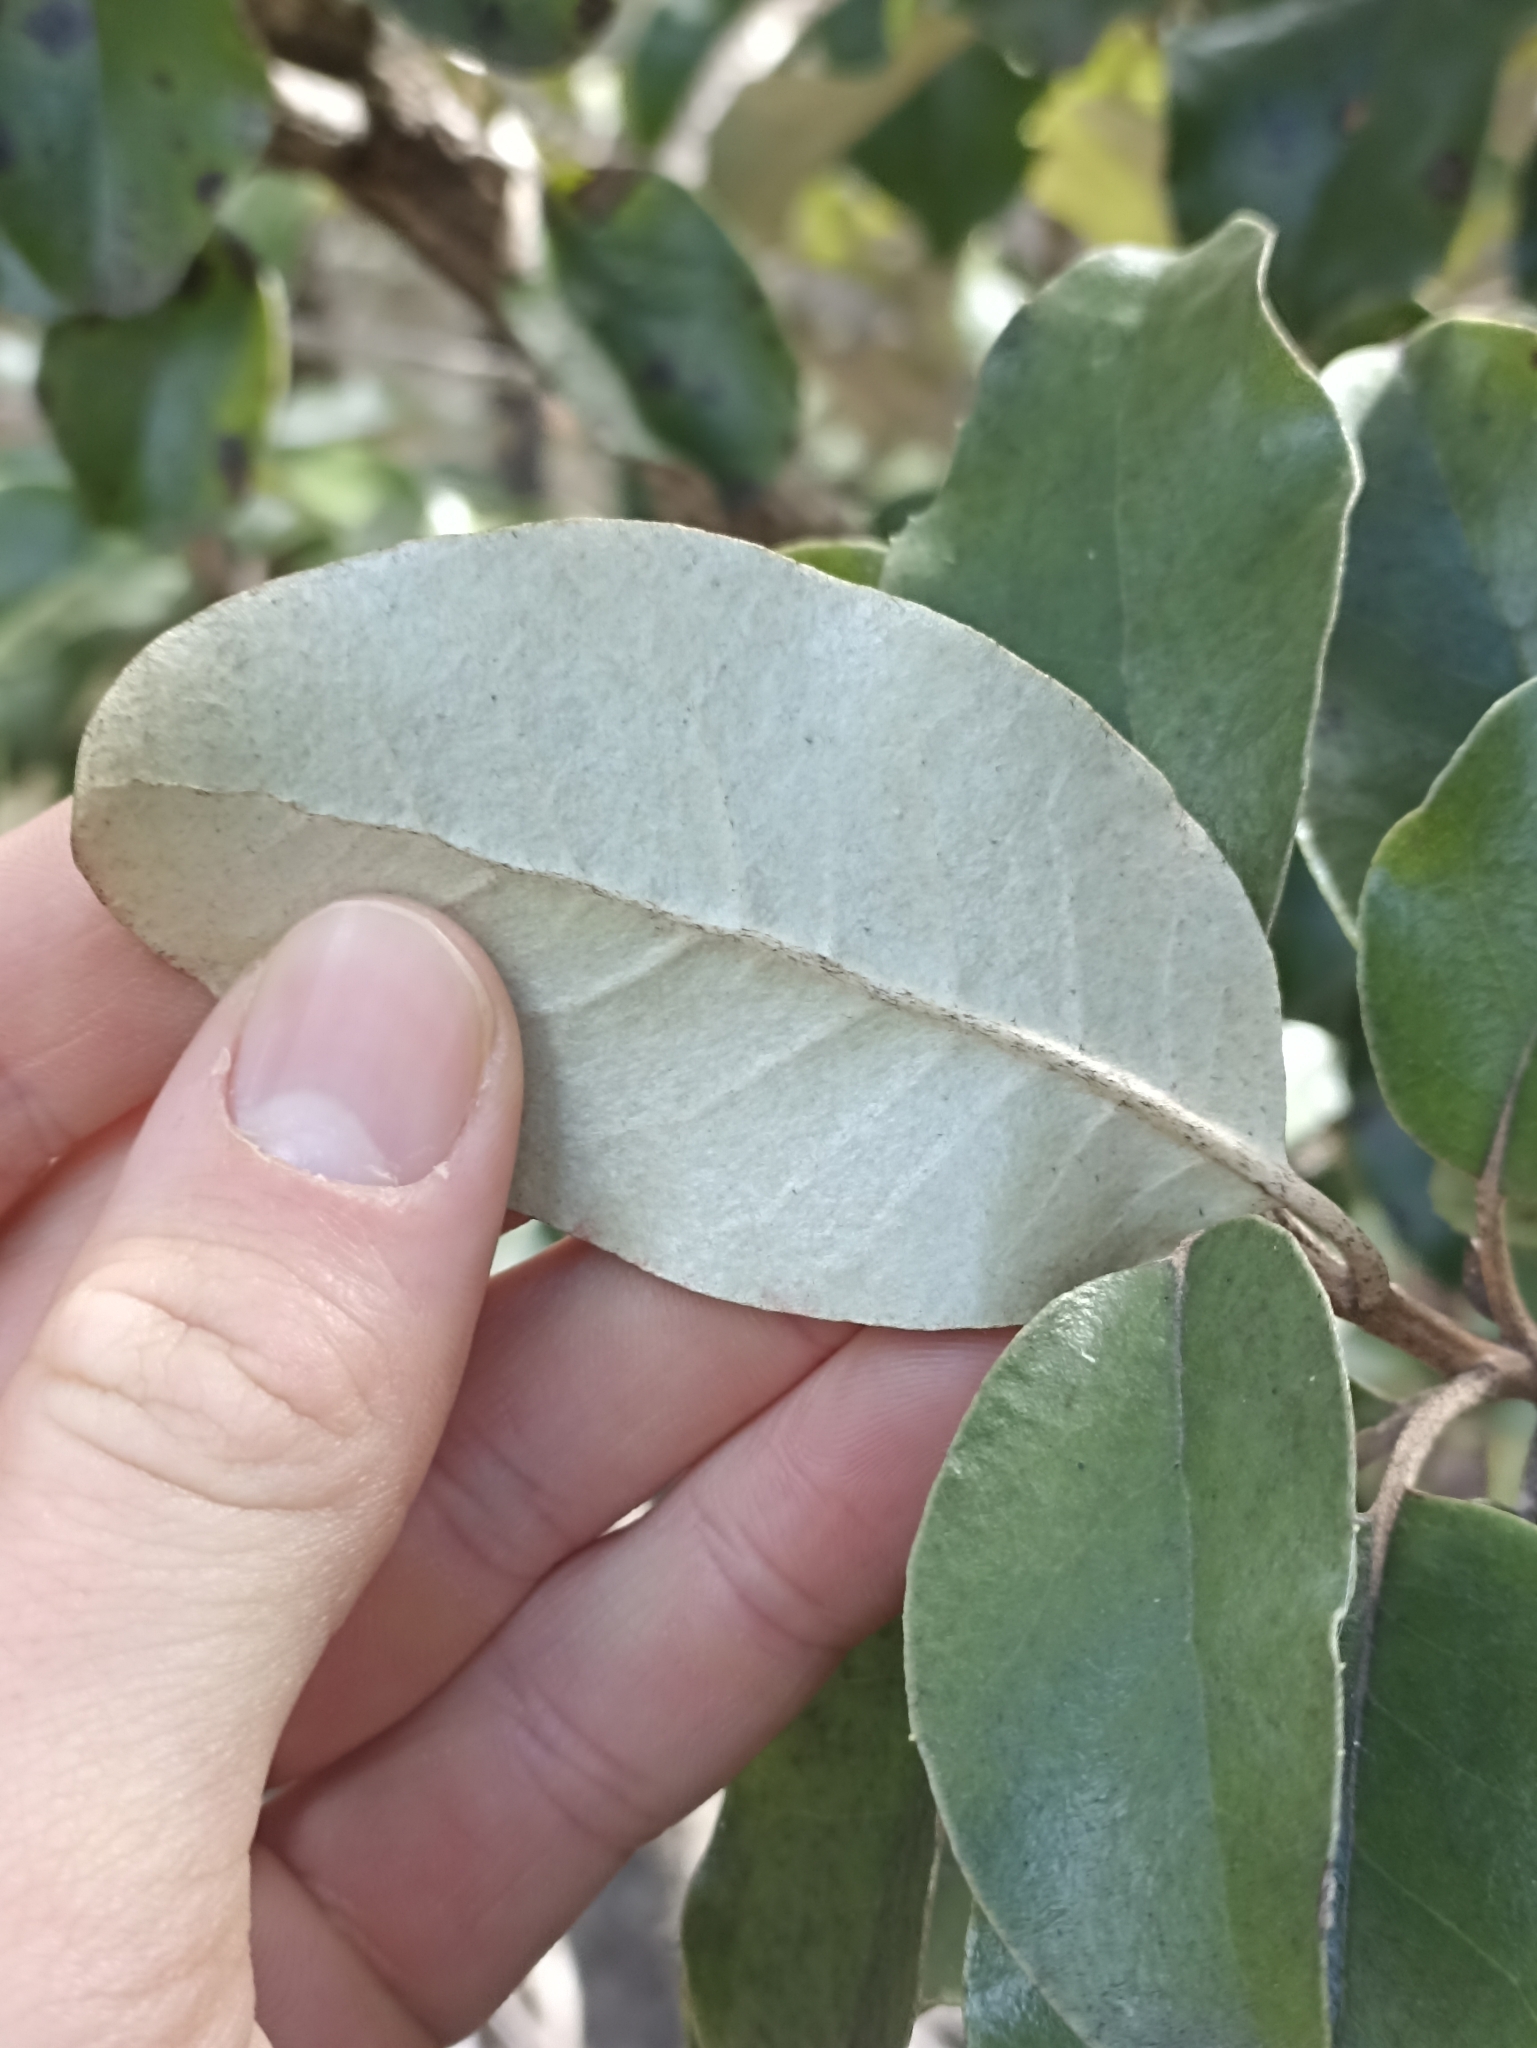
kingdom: Plantae
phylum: Tracheophyta
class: Magnoliopsida
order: Asterales
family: Asteraceae
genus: Olearia
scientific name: Olearia furfuracea
